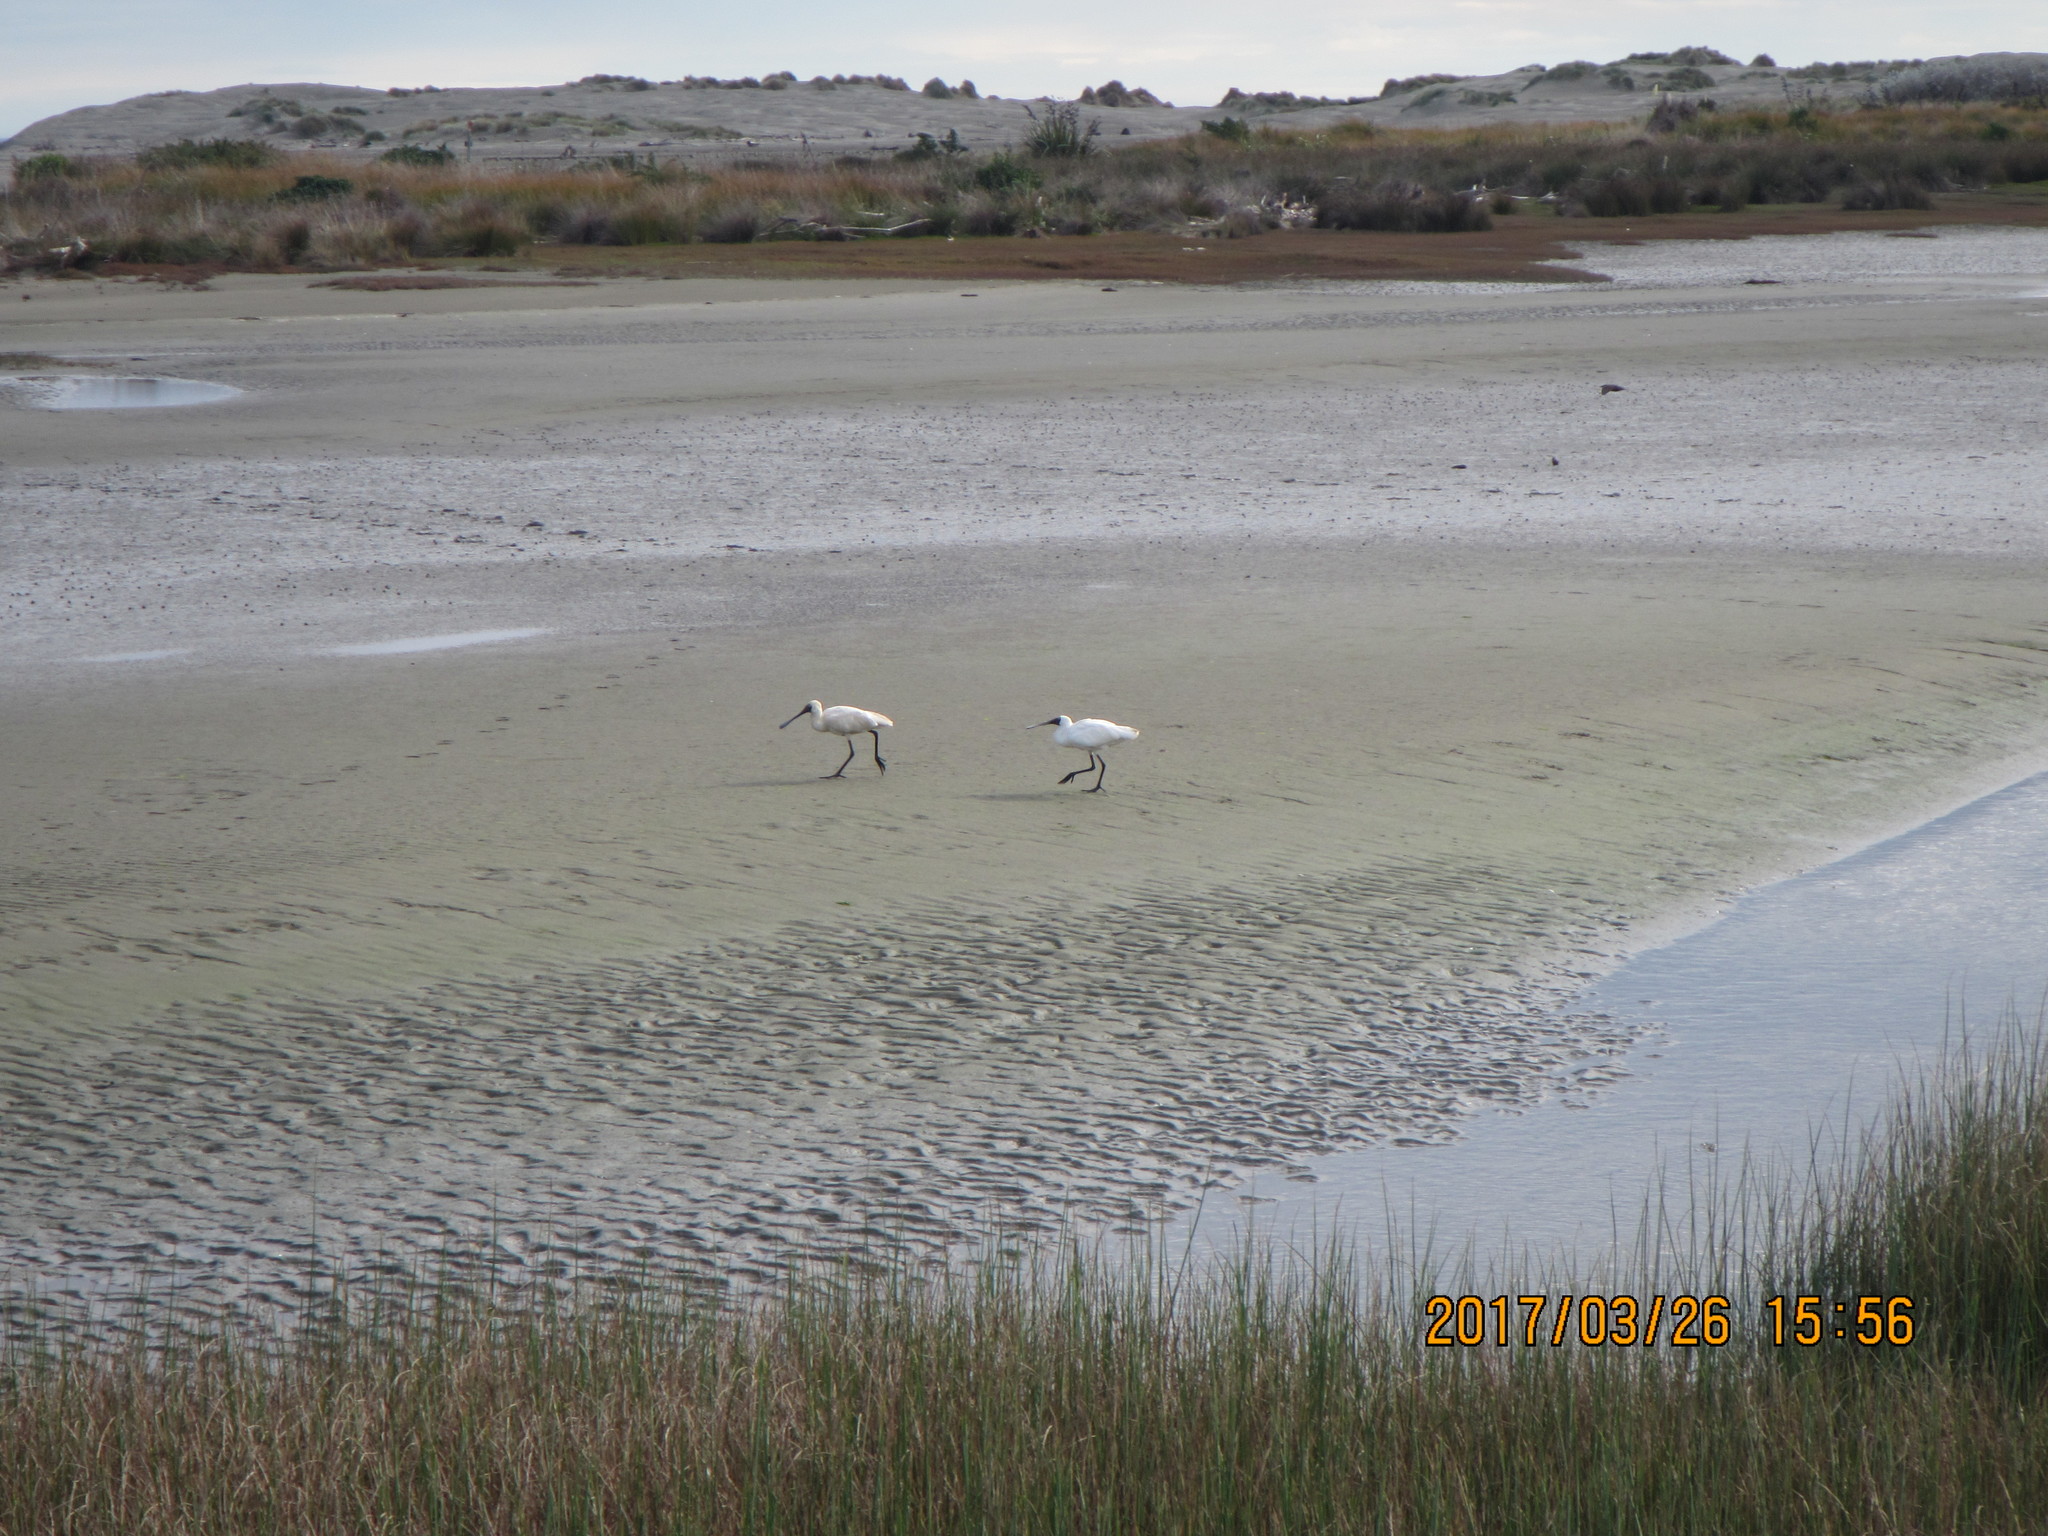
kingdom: Animalia
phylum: Chordata
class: Aves
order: Pelecaniformes
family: Threskiornithidae
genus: Platalea
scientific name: Platalea regia
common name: Royal spoonbill
